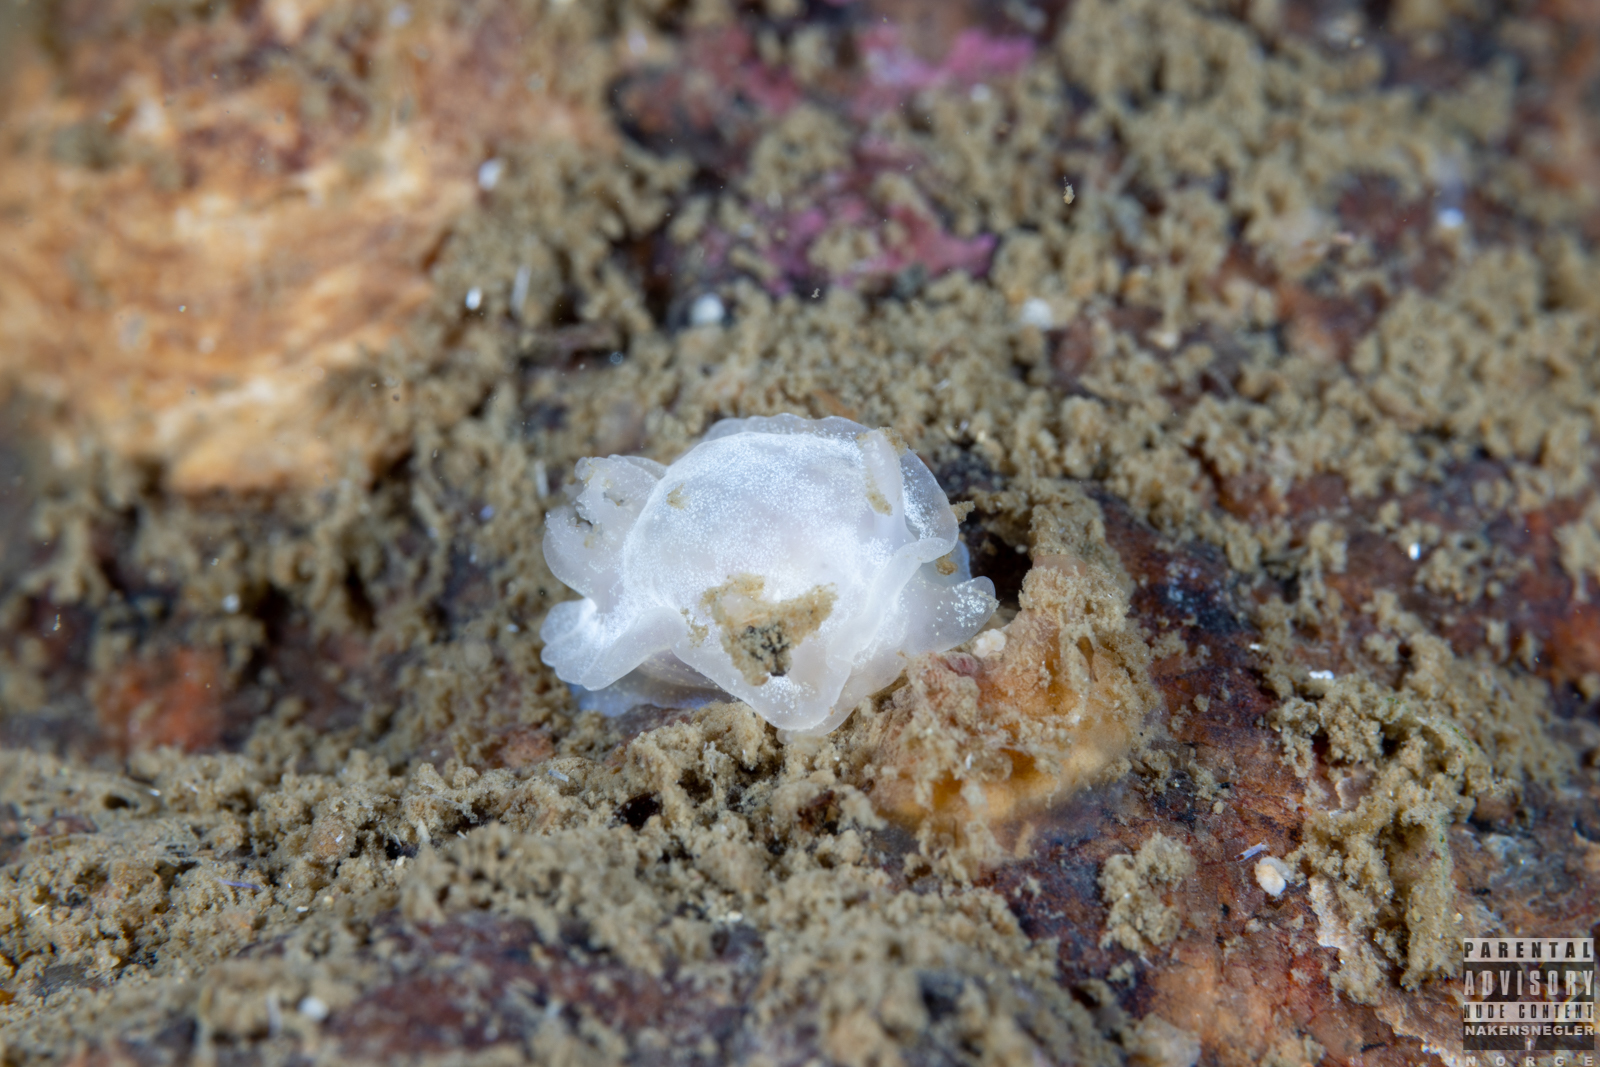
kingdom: Animalia
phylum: Mollusca
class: Gastropoda
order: Nudibranchia
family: Goniodorididae
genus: Okenia
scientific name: Okenia
